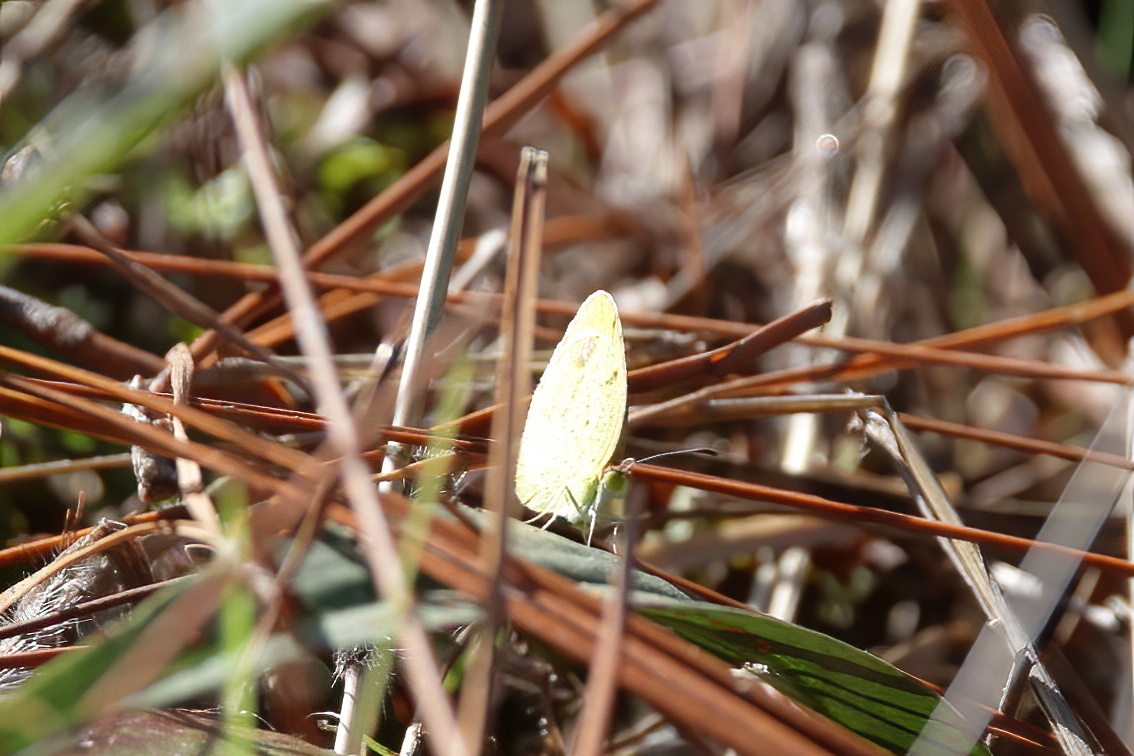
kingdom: Animalia
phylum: Arthropoda
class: Insecta
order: Lepidoptera
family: Pieridae
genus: Pyrisitia
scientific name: Pyrisitia lisa
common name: Little yellow
